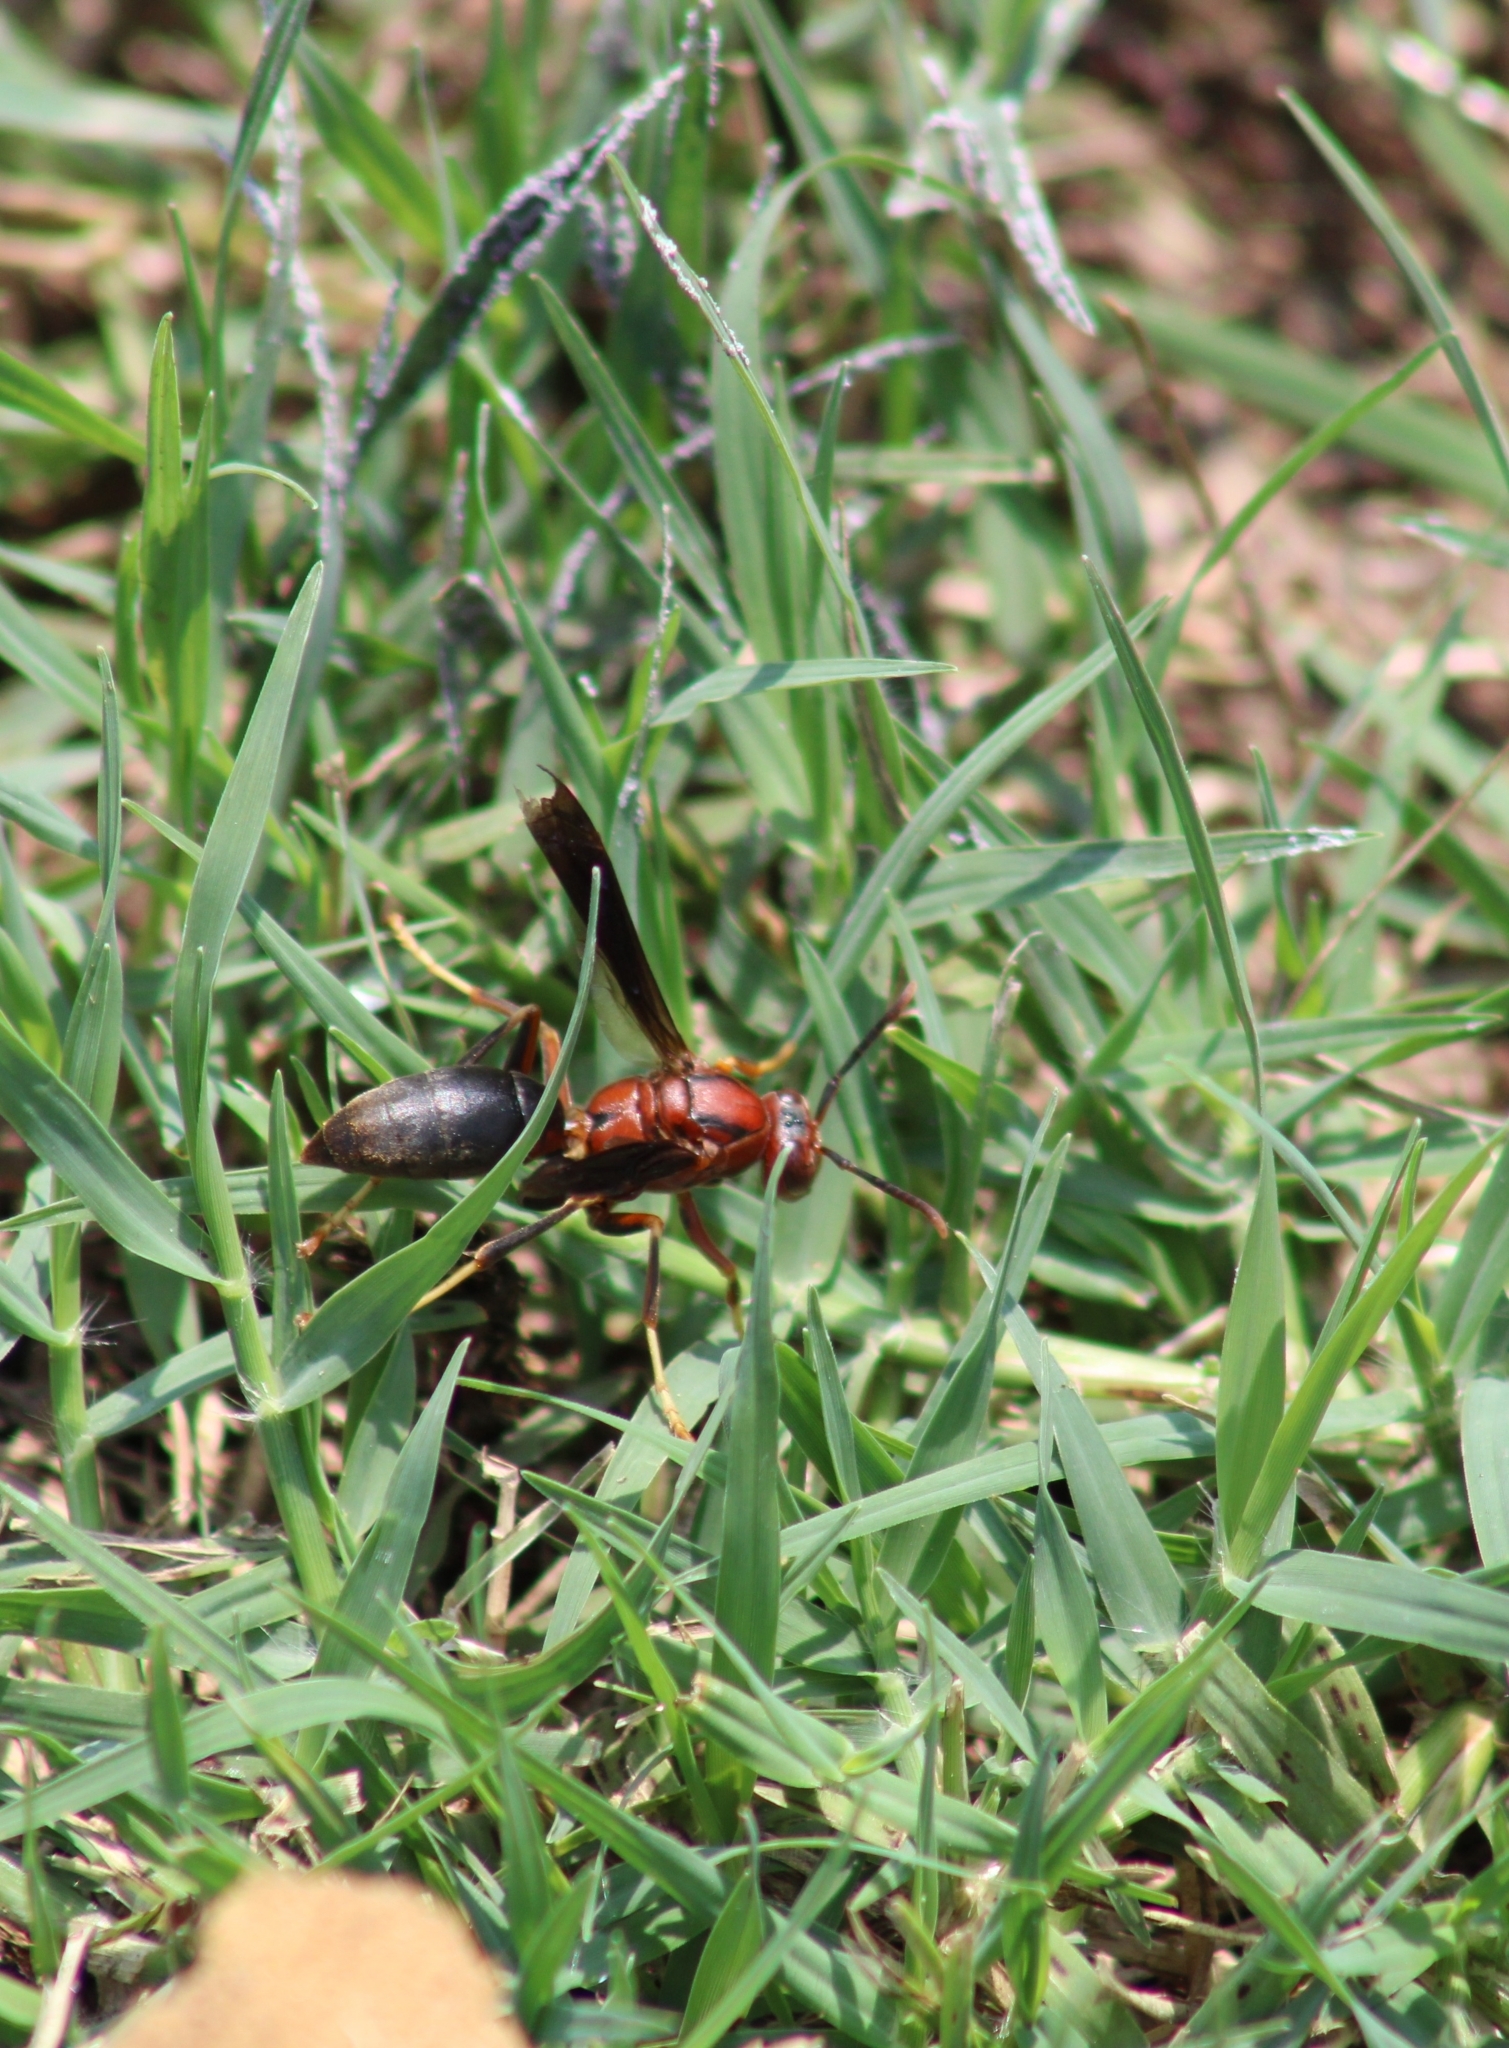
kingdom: Animalia
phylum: Arthropoda
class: Insecta
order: Hymenoptera
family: Eumenidae
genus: Polistes
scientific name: Polistes metricus
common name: Metric paper wasp
